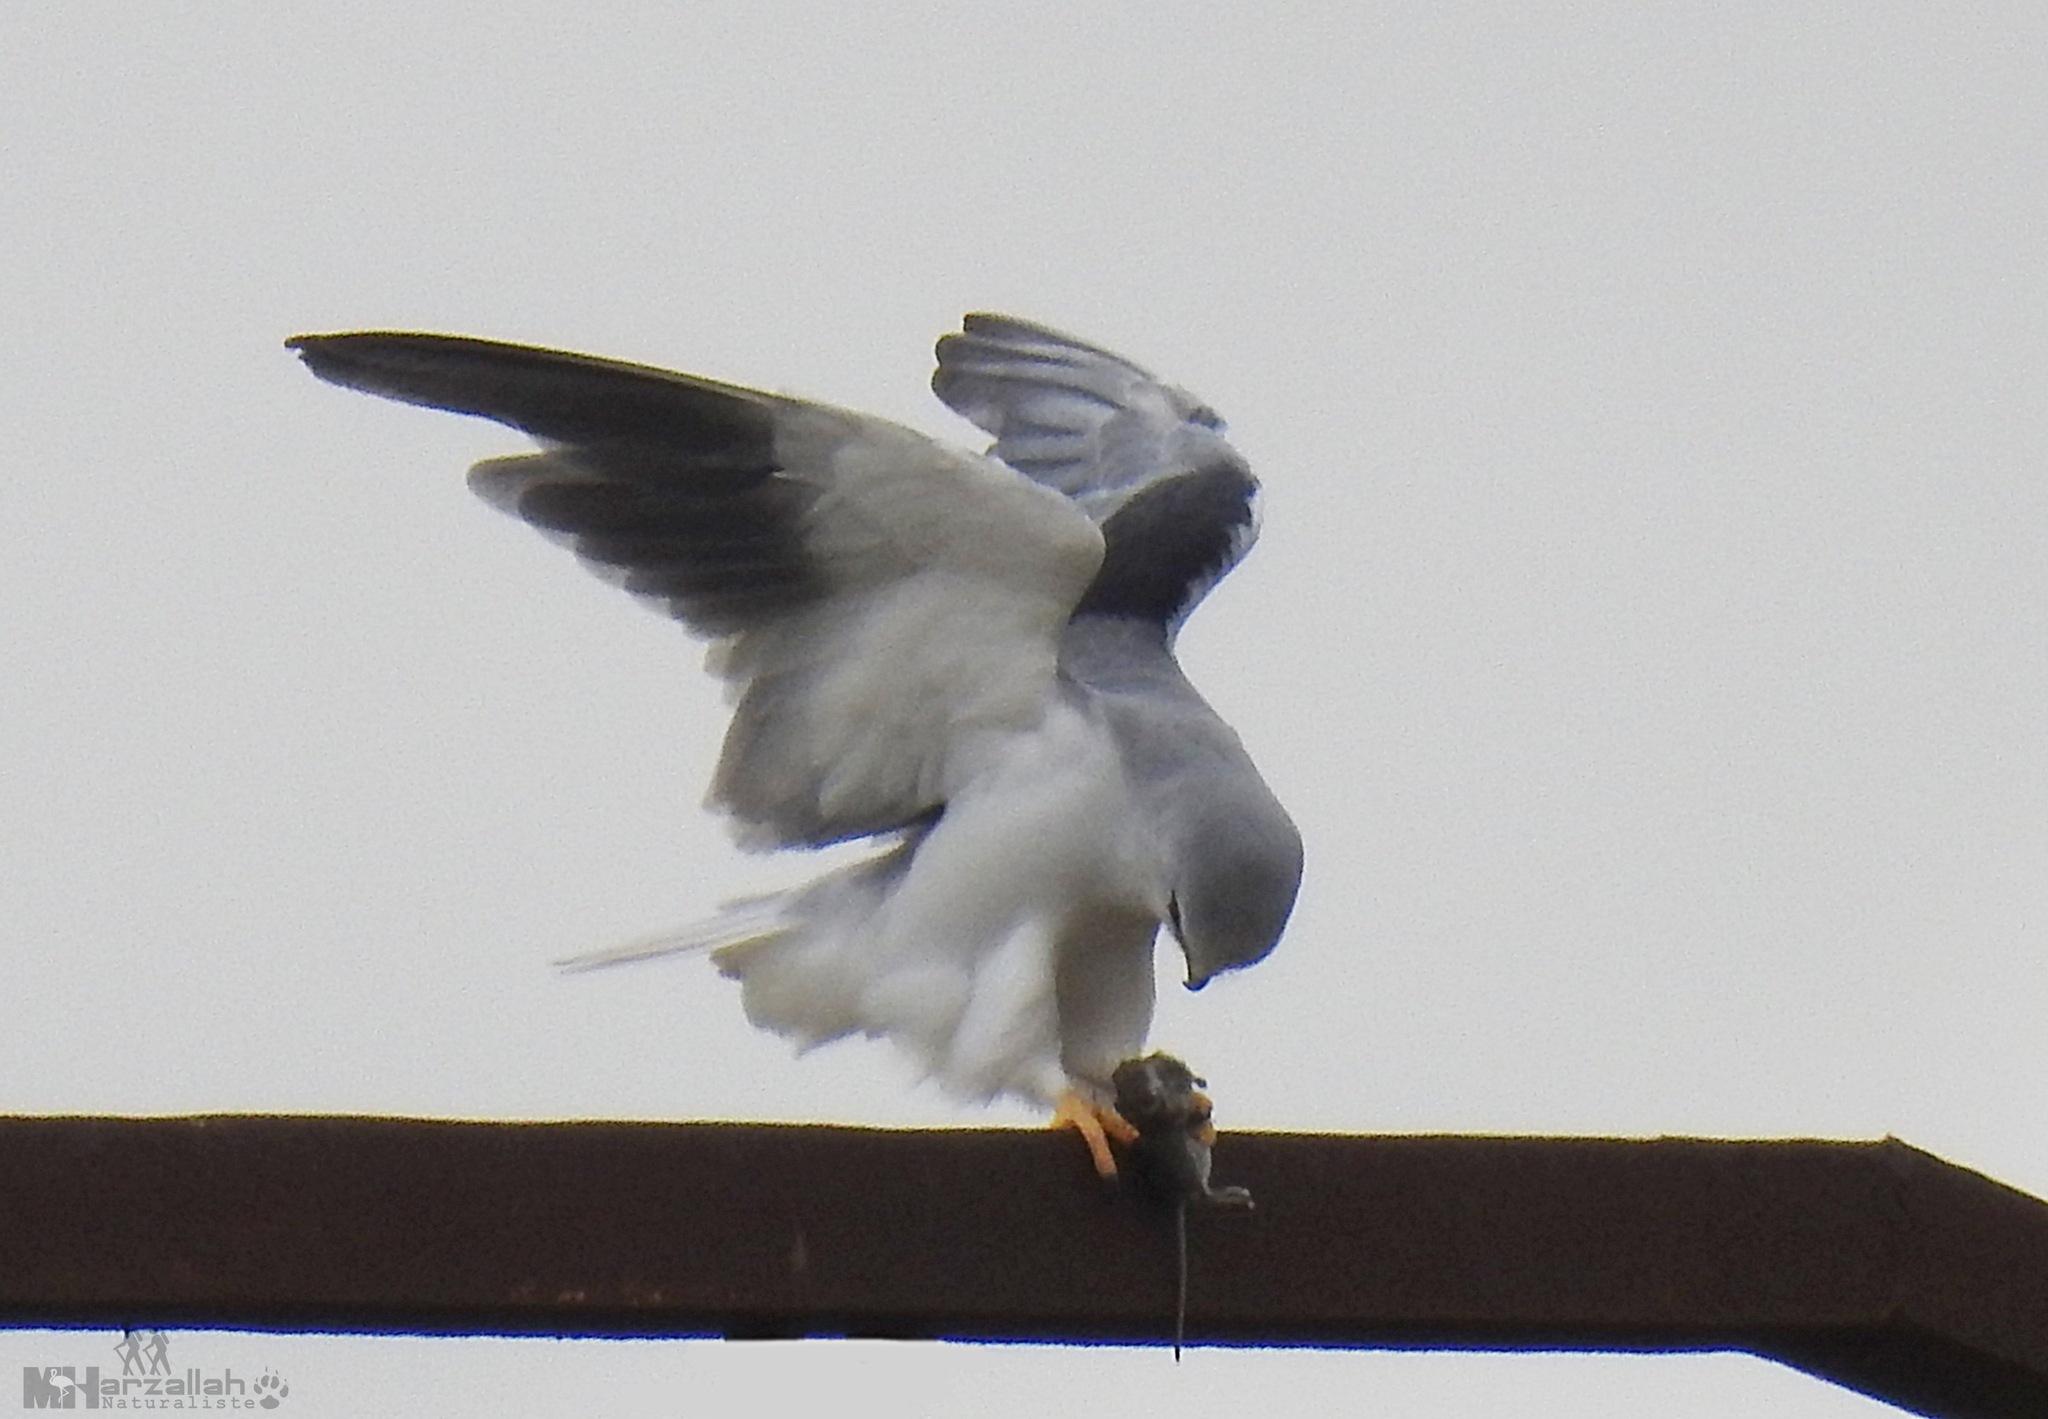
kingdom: Animalia
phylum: Chordata
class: Aves
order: Accipitriformes
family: Accipitridae
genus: Elanus
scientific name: Elanus caeruleus
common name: Black-winged kite
